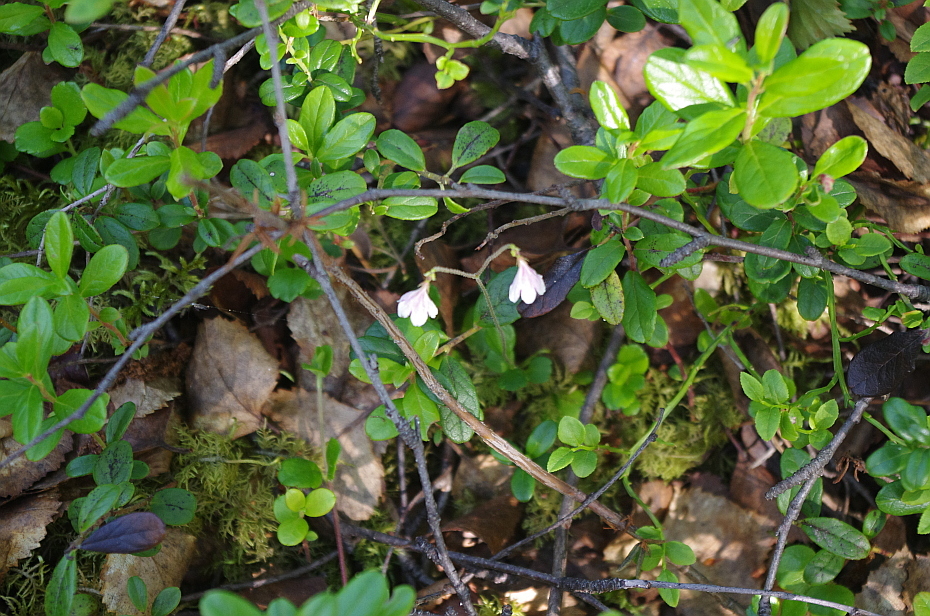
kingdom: Plantae
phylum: Tracheophyta
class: Magnoliopsida
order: Dipsacales
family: Caprifoliaceae
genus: Linnaea
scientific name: Linnaea borealis
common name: Twinflower
